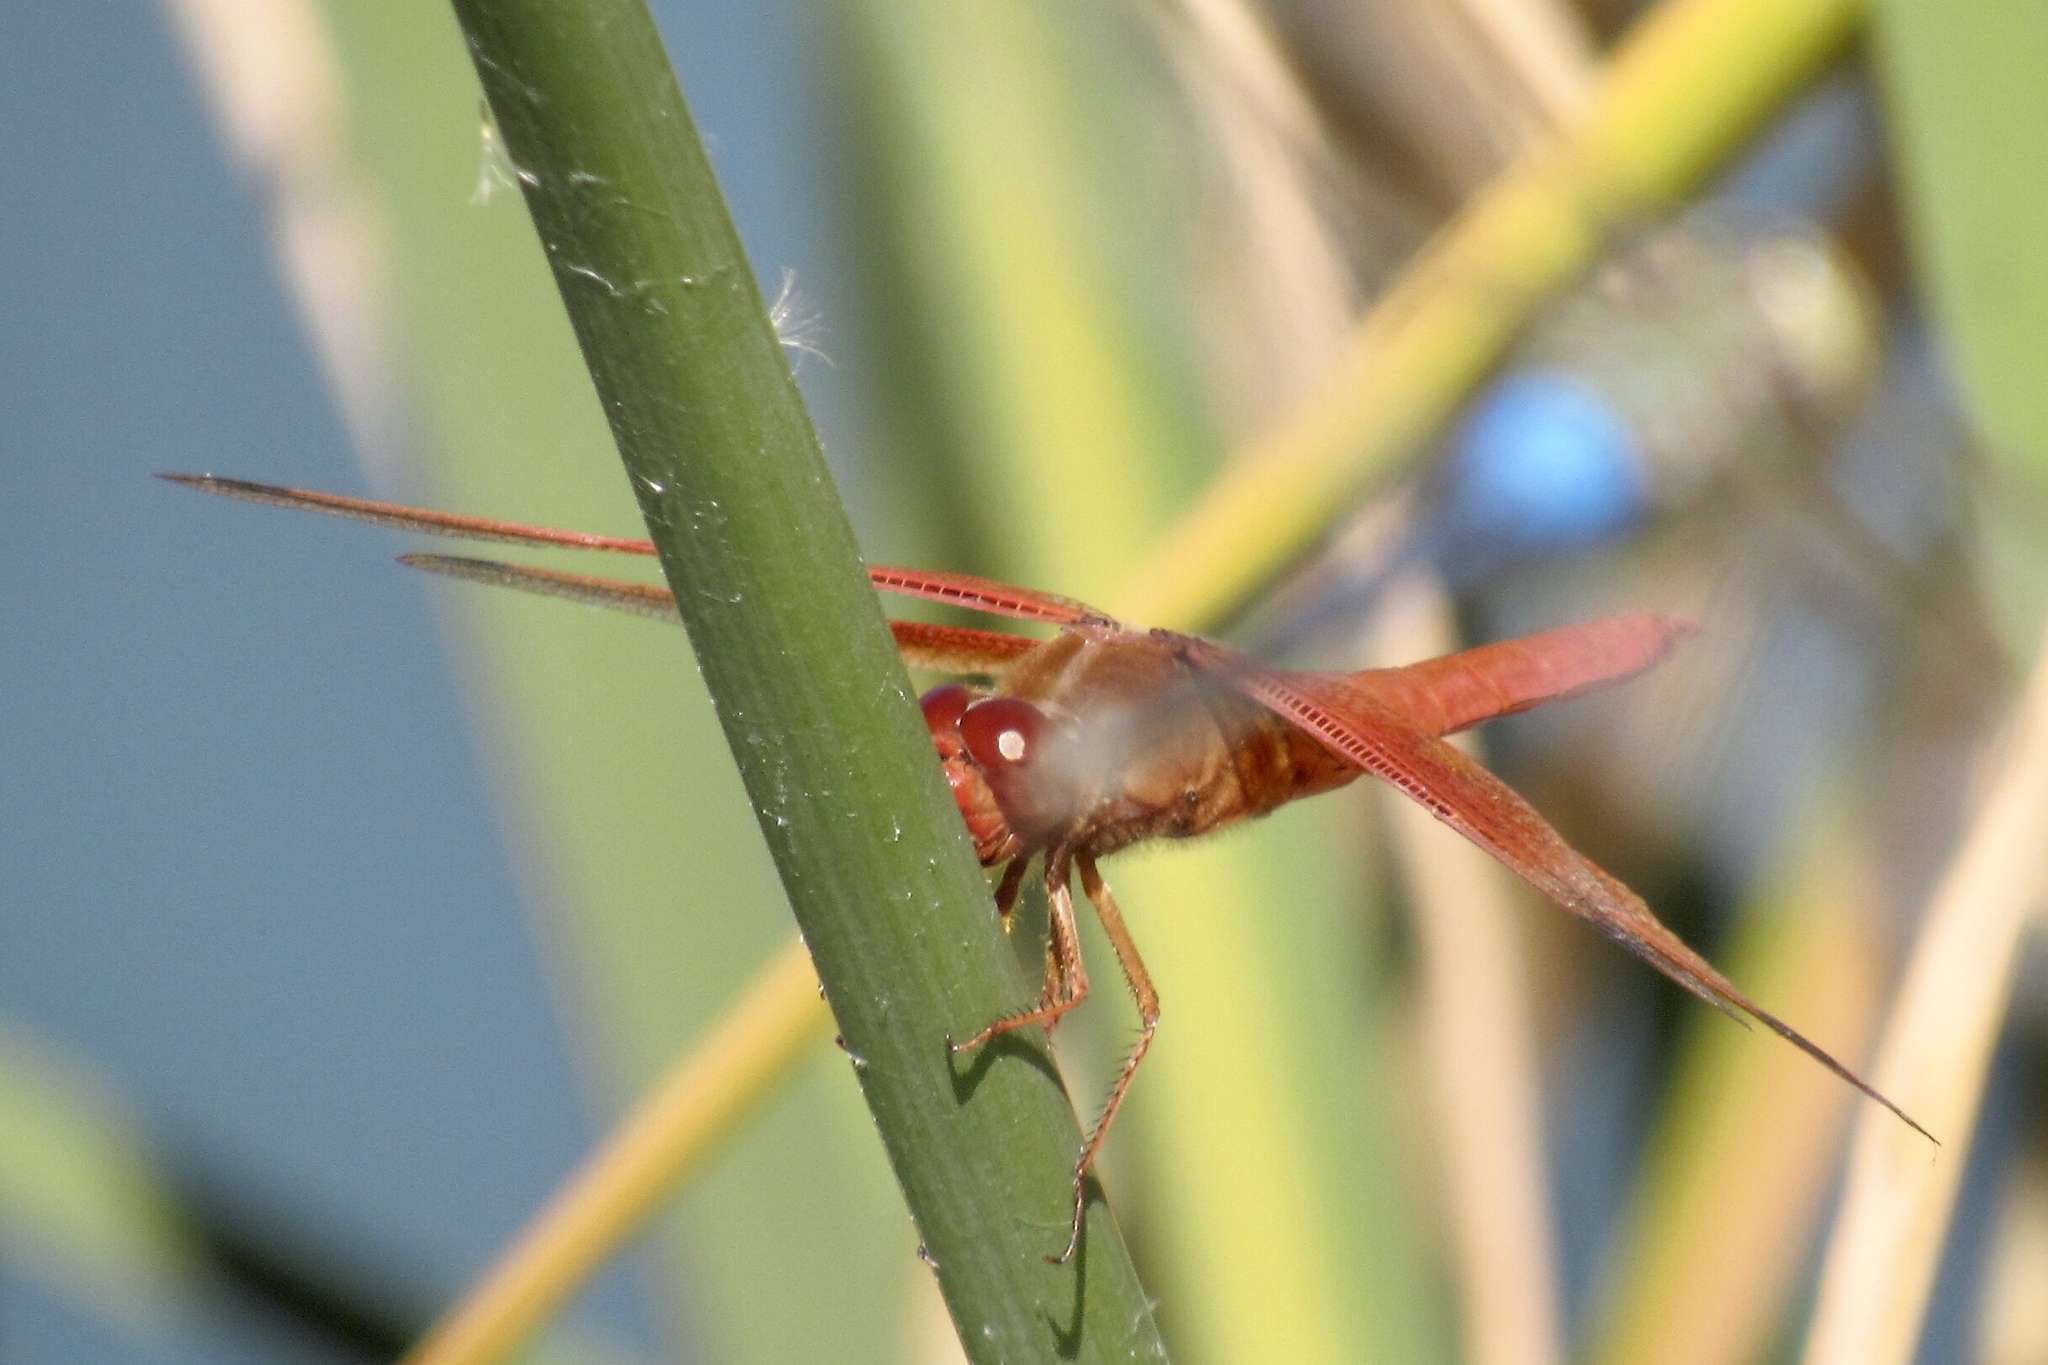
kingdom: Animalia
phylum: Arthropoda
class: Insecta
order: Odonata
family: Libellulidae
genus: Libellula
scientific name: Libellula saturata
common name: Flame skimmer
